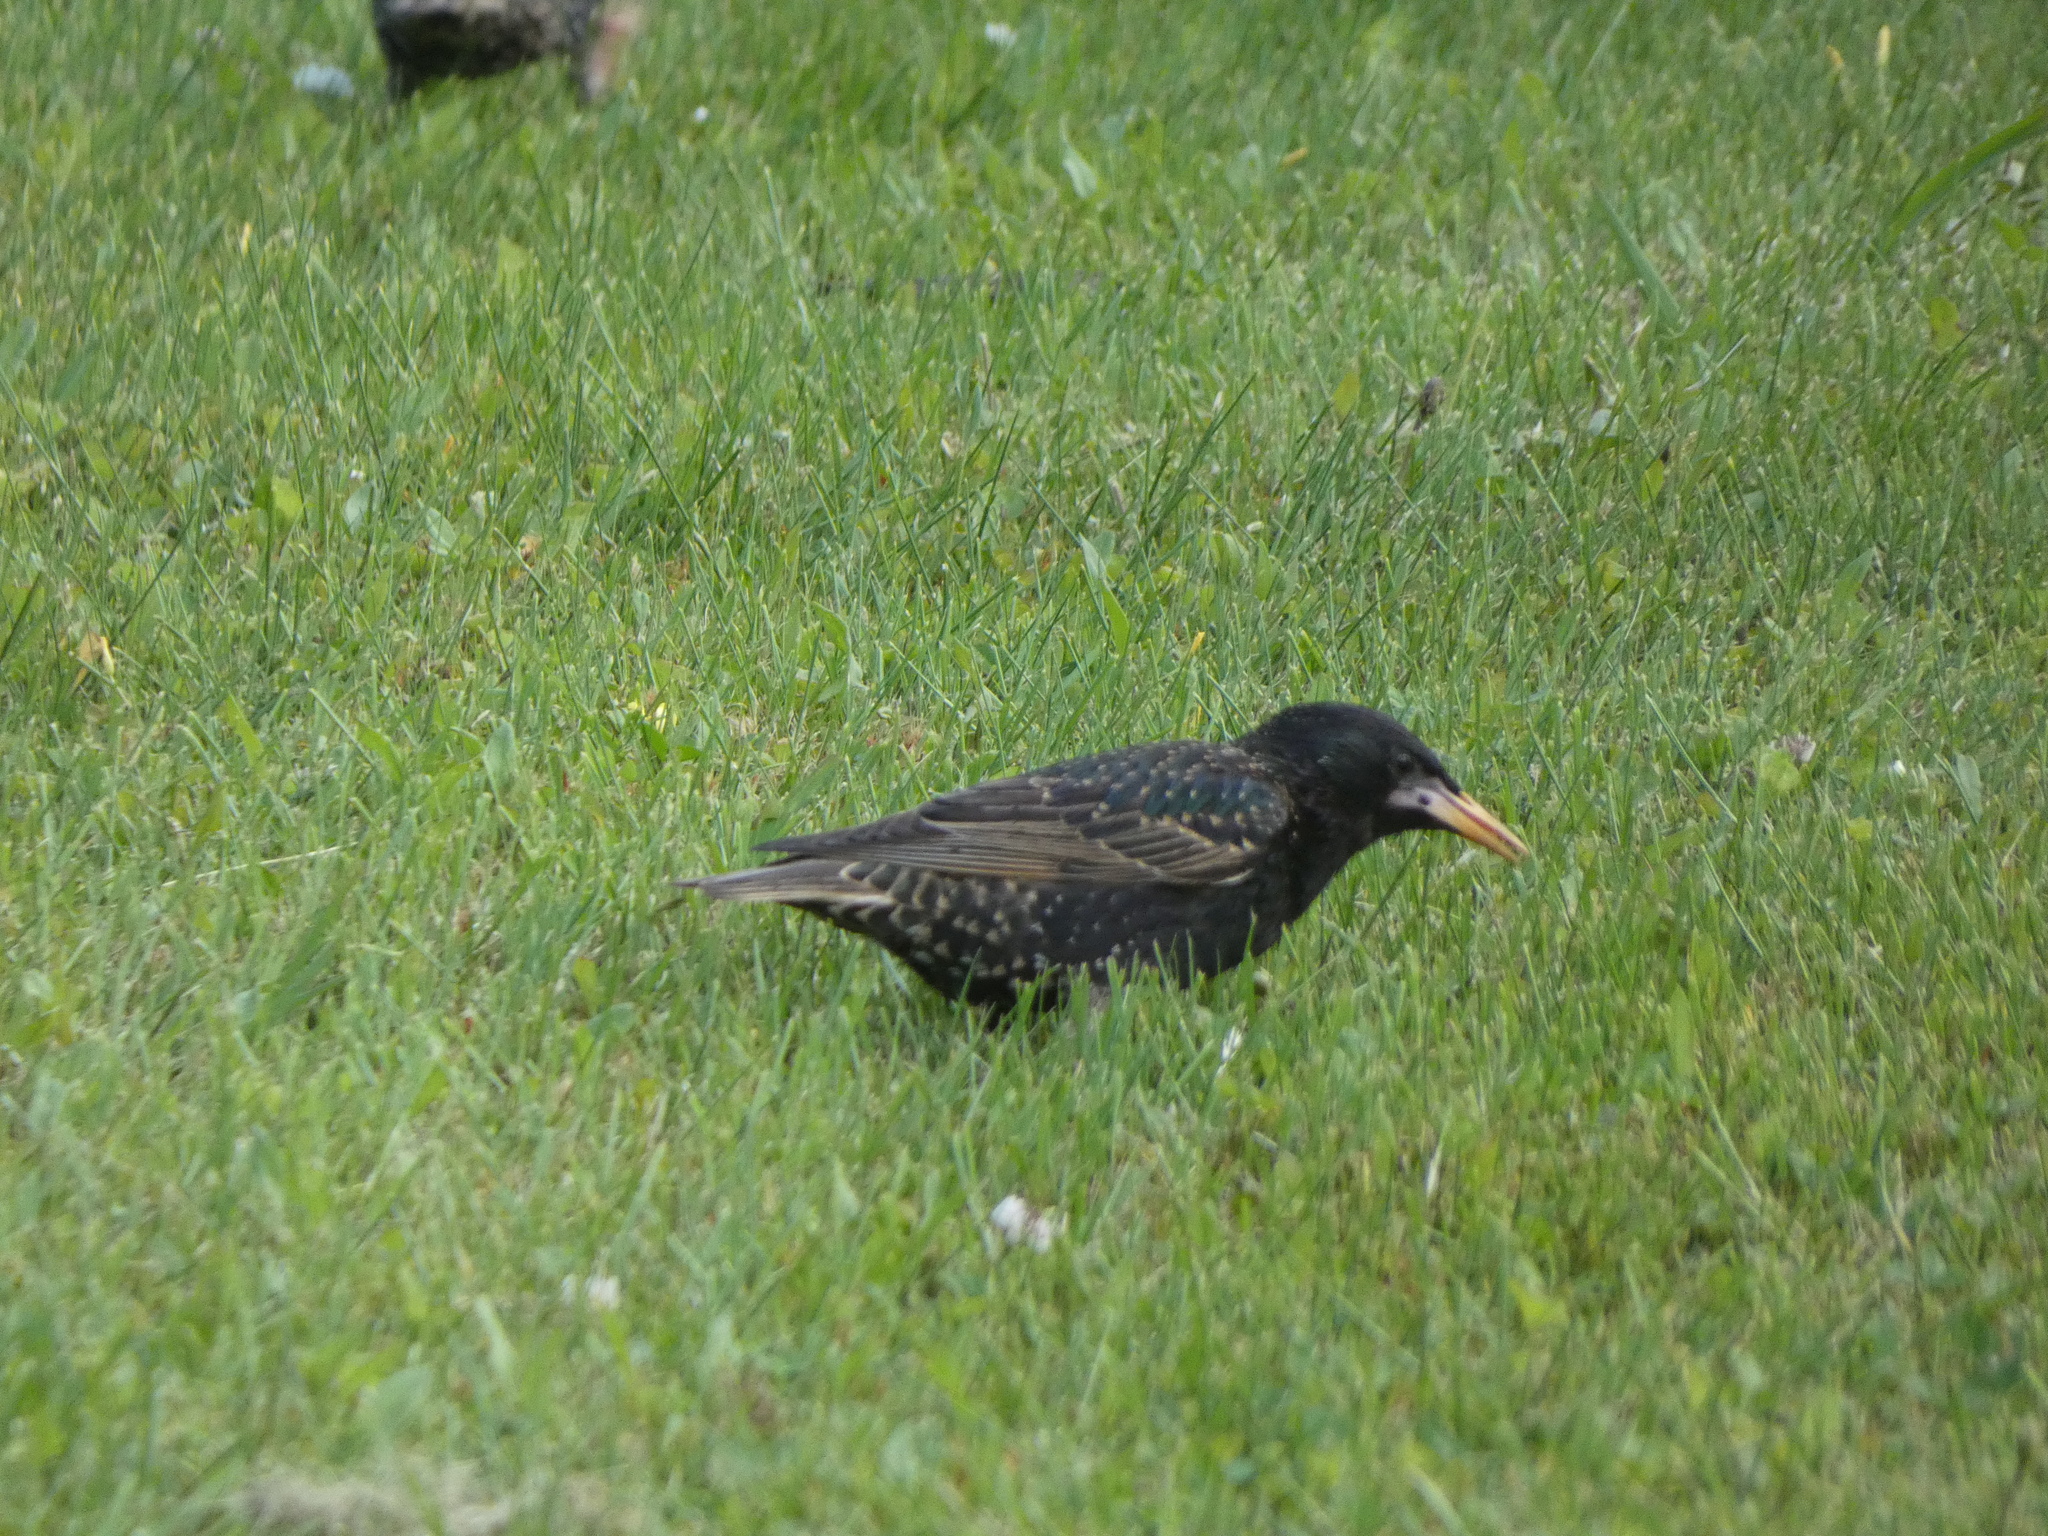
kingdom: Animalia
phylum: Chordata
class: Aves
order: Passeriformes
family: Sturnidae
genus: Sturnus
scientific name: Sturnus vulgaris
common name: Common starling
